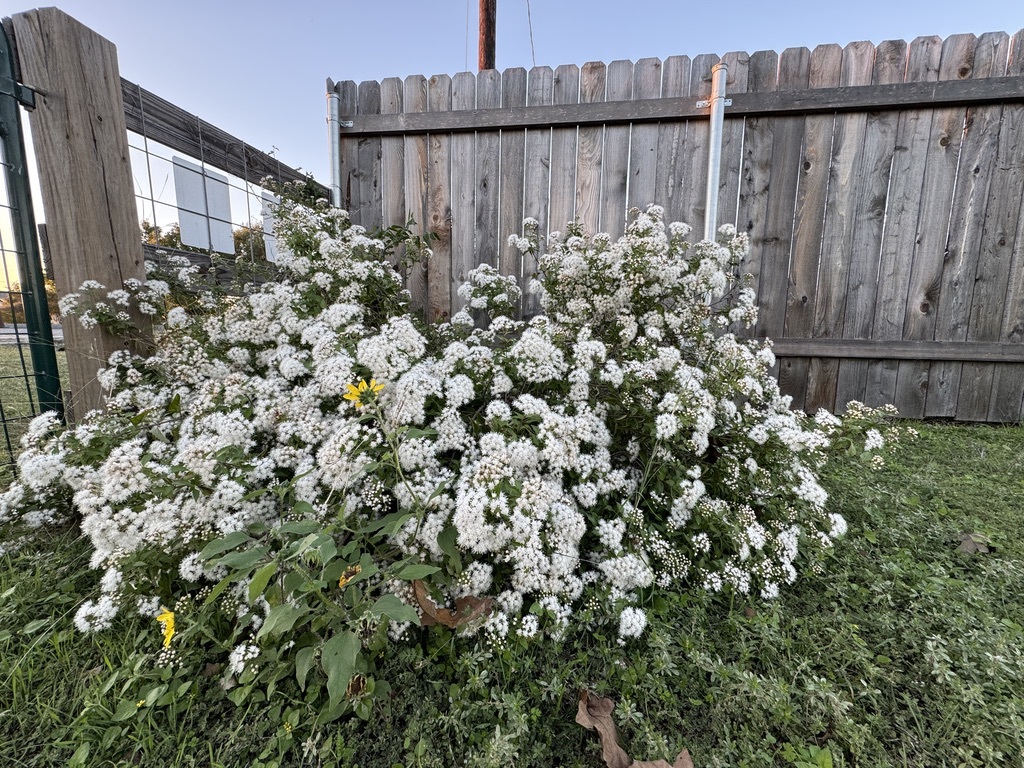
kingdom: Plantae
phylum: Tracheophyta
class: Magnoliopsida
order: Asterales
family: Asteraceae
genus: Ageratina
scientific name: Ageratina havanensis
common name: Havana snakeroot
